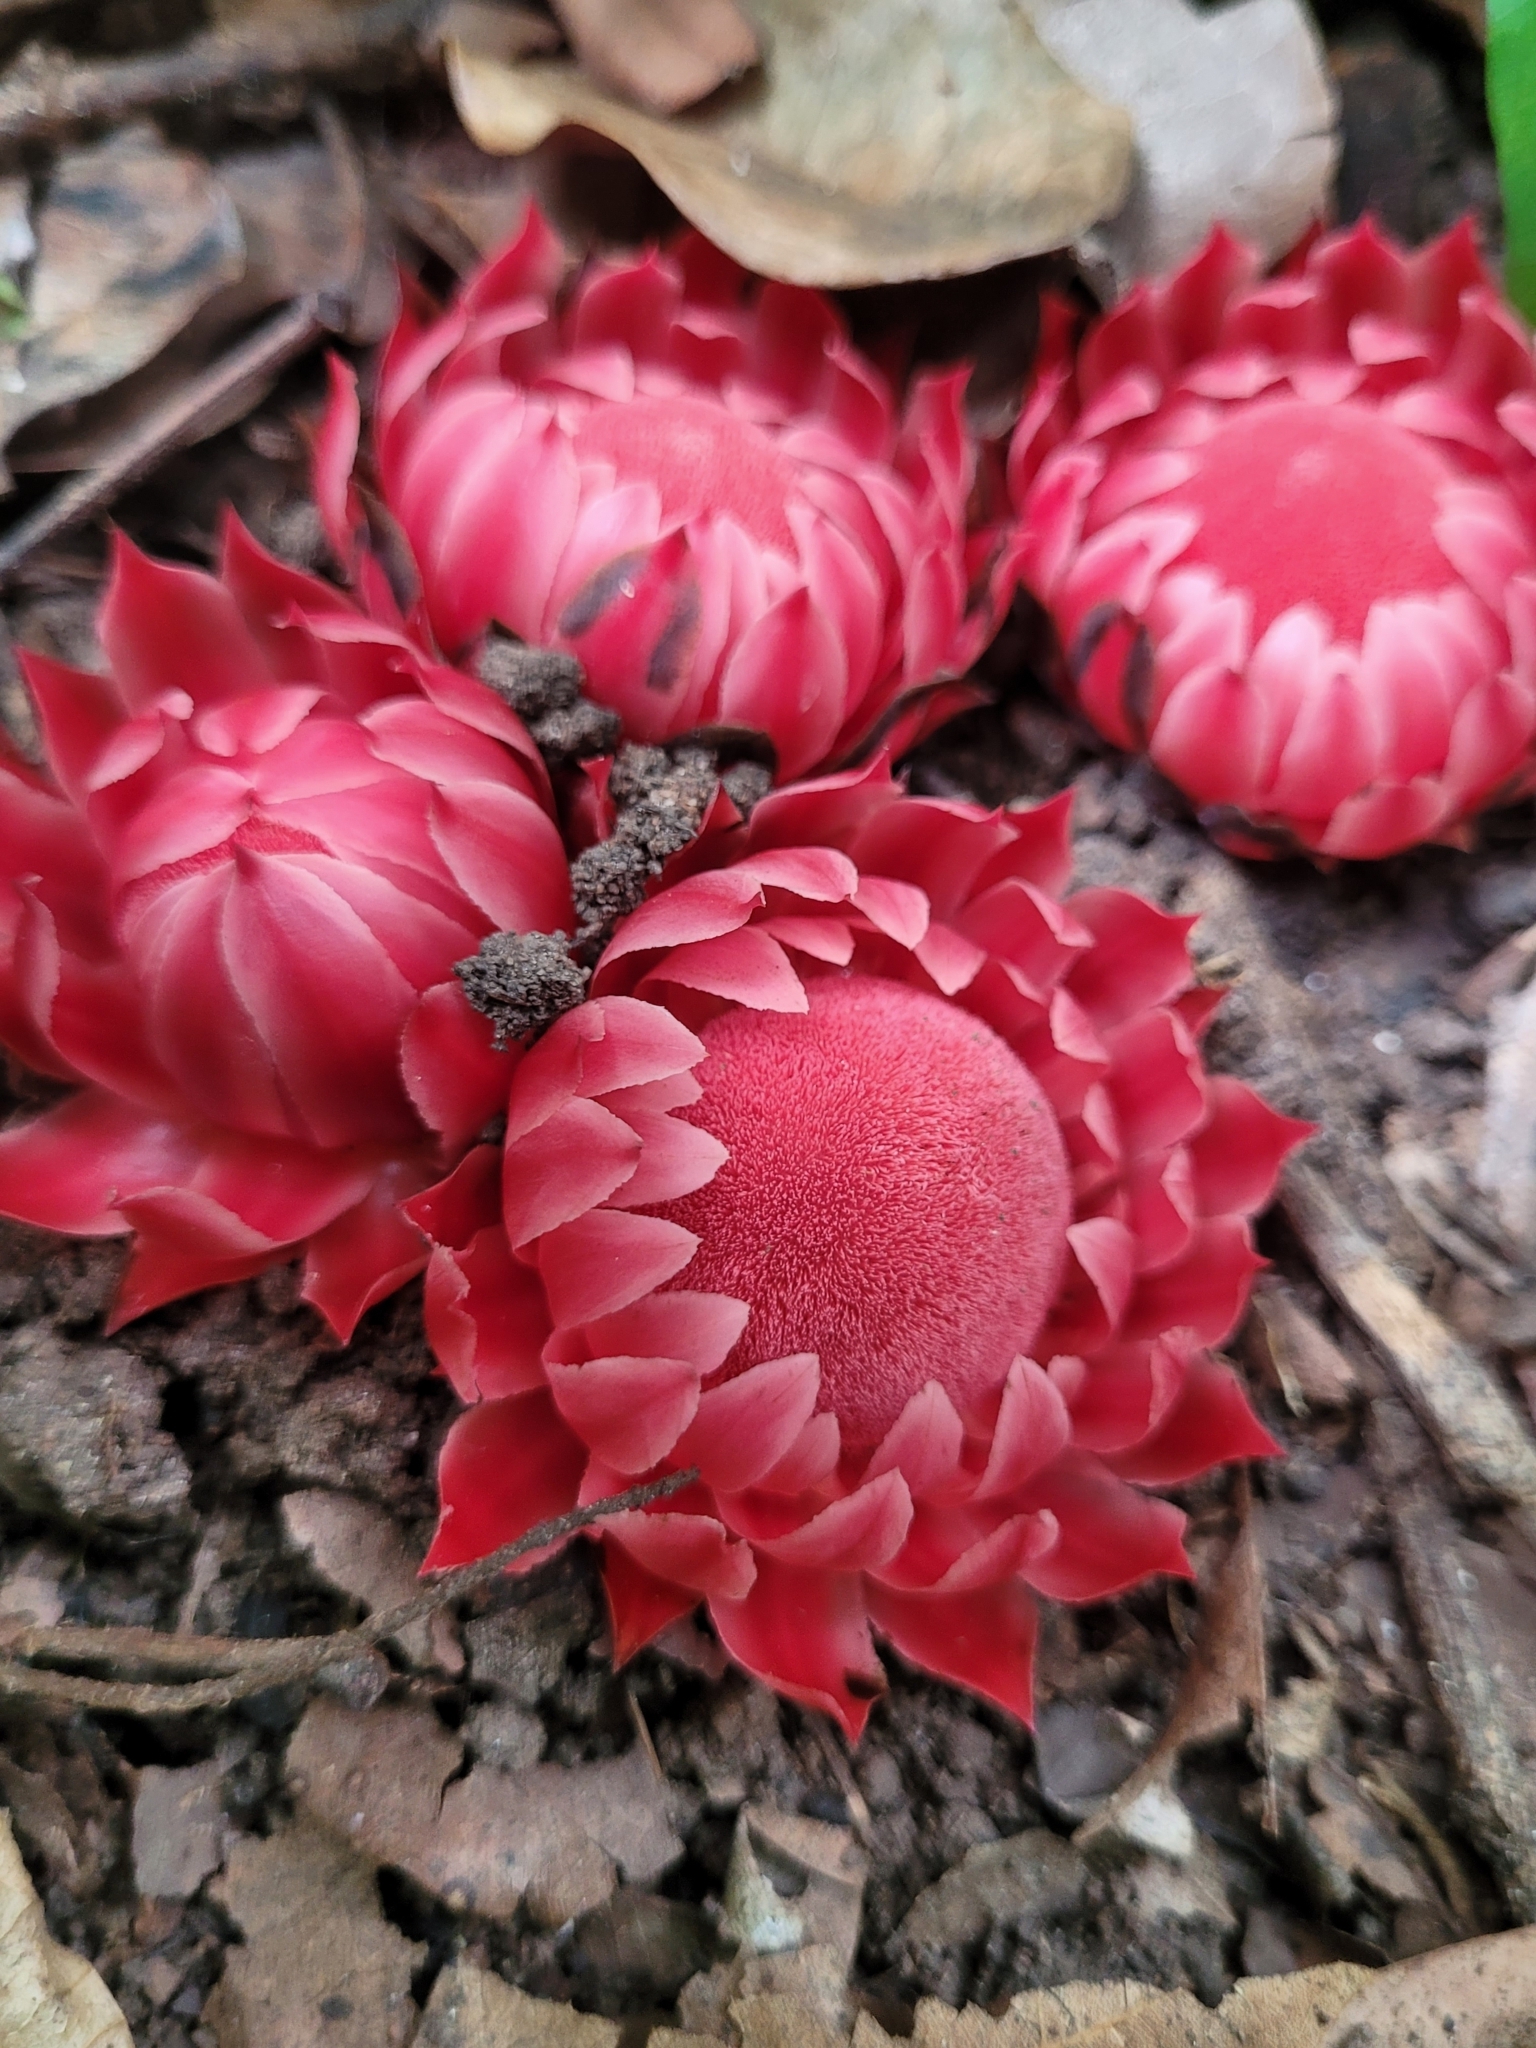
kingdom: Plantae
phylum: Tracheophyta
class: Magnoliopsida
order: Santalales
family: Balanophoraceae
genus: Thonningia
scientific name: Thonningia sanguinea
